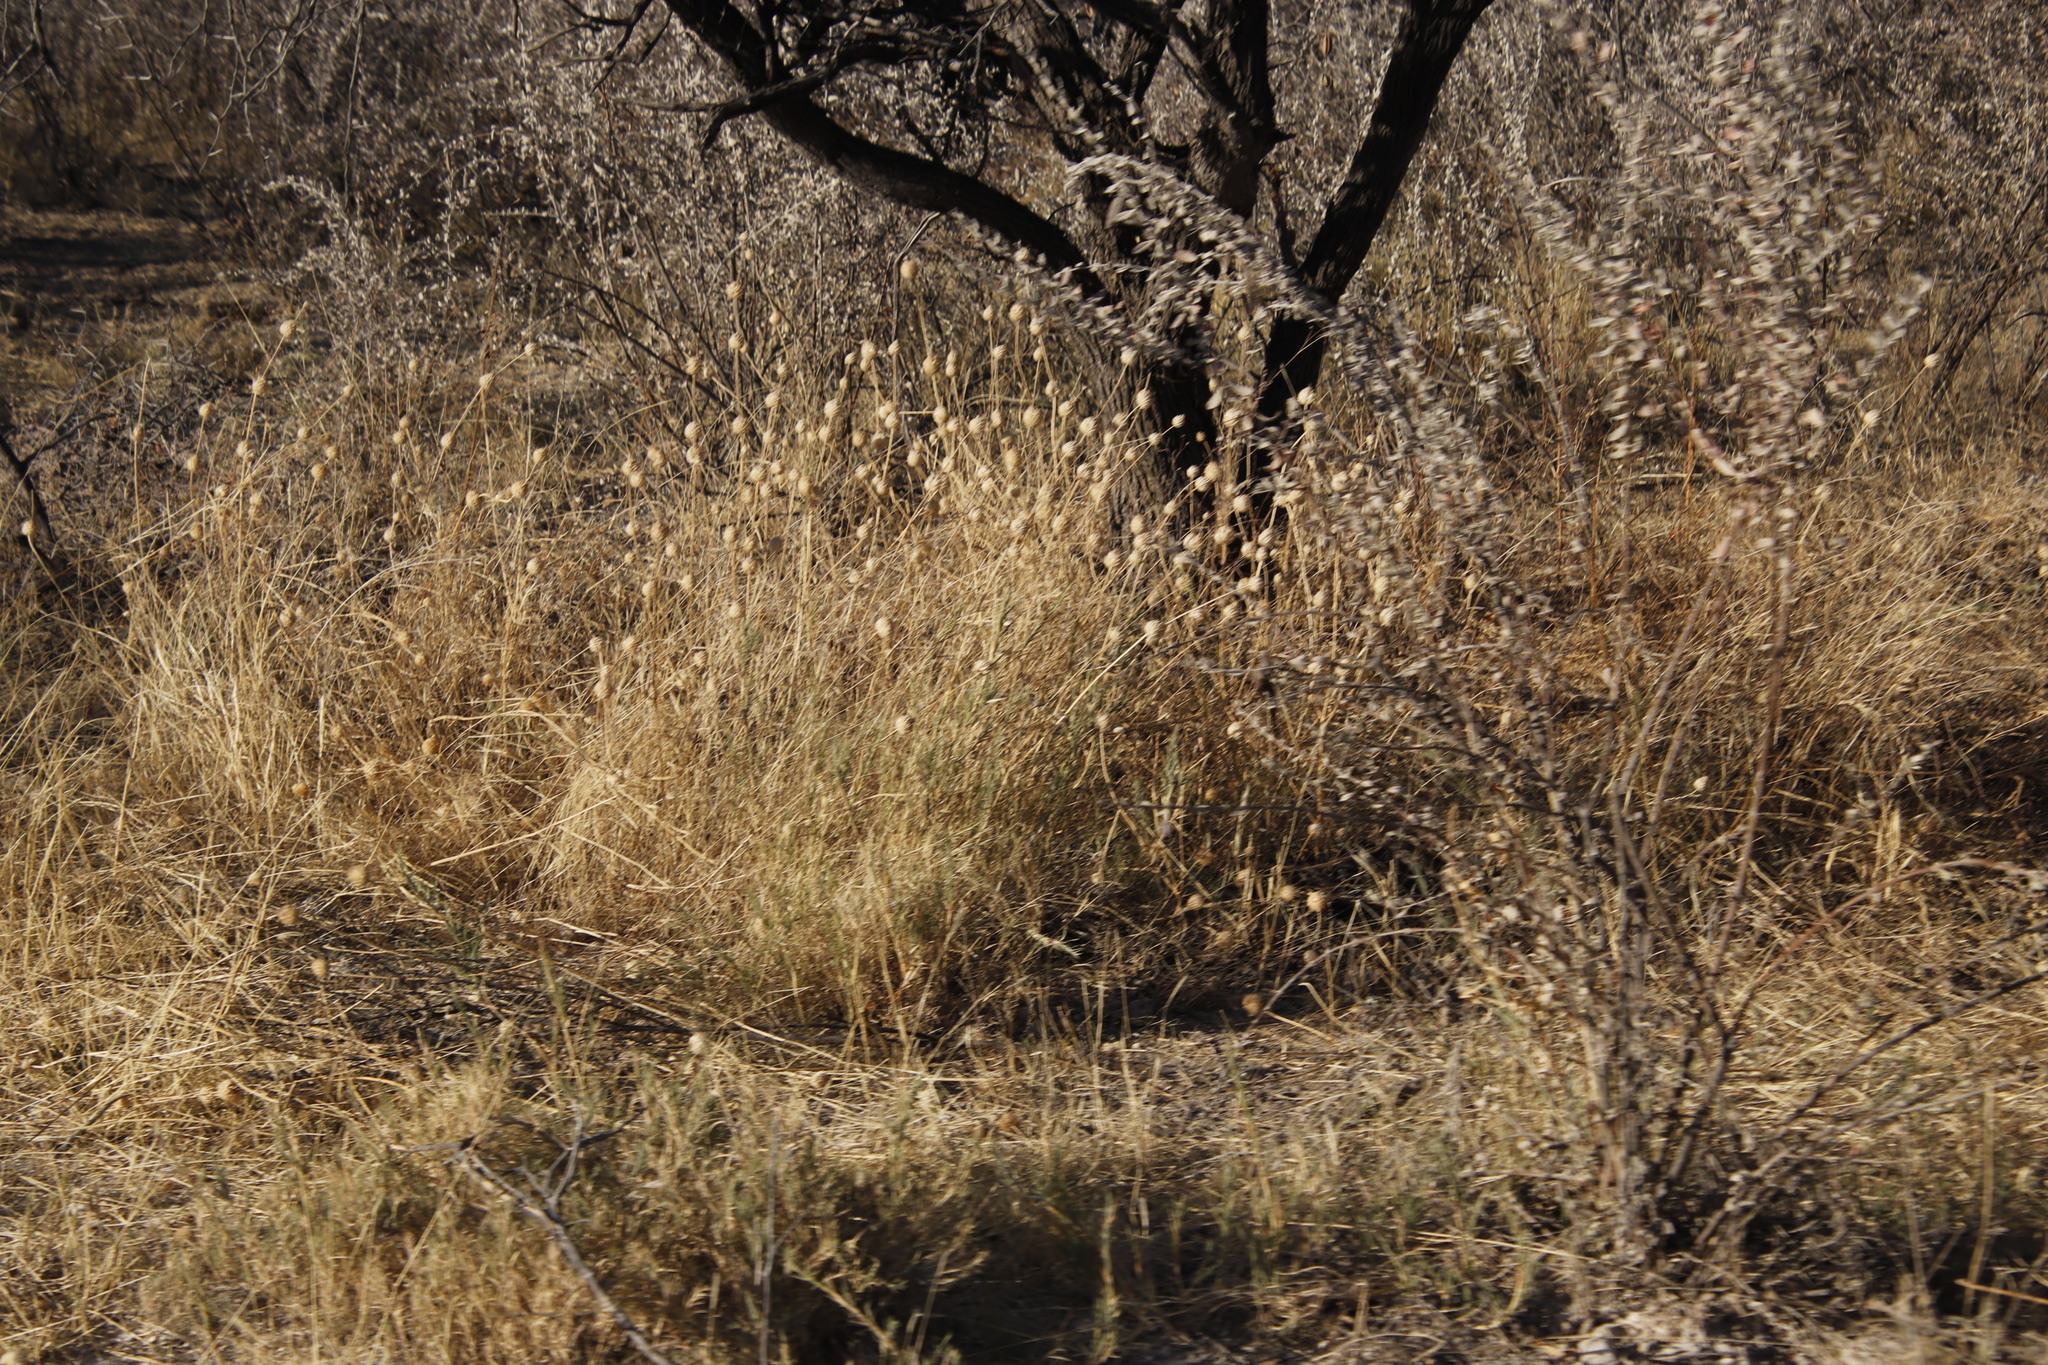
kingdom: Plantae
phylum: Tracheophyta
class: Magnoliopsida
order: Lamiales
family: Lamiaceae
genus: Acrotome
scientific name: Acrotome inflata
